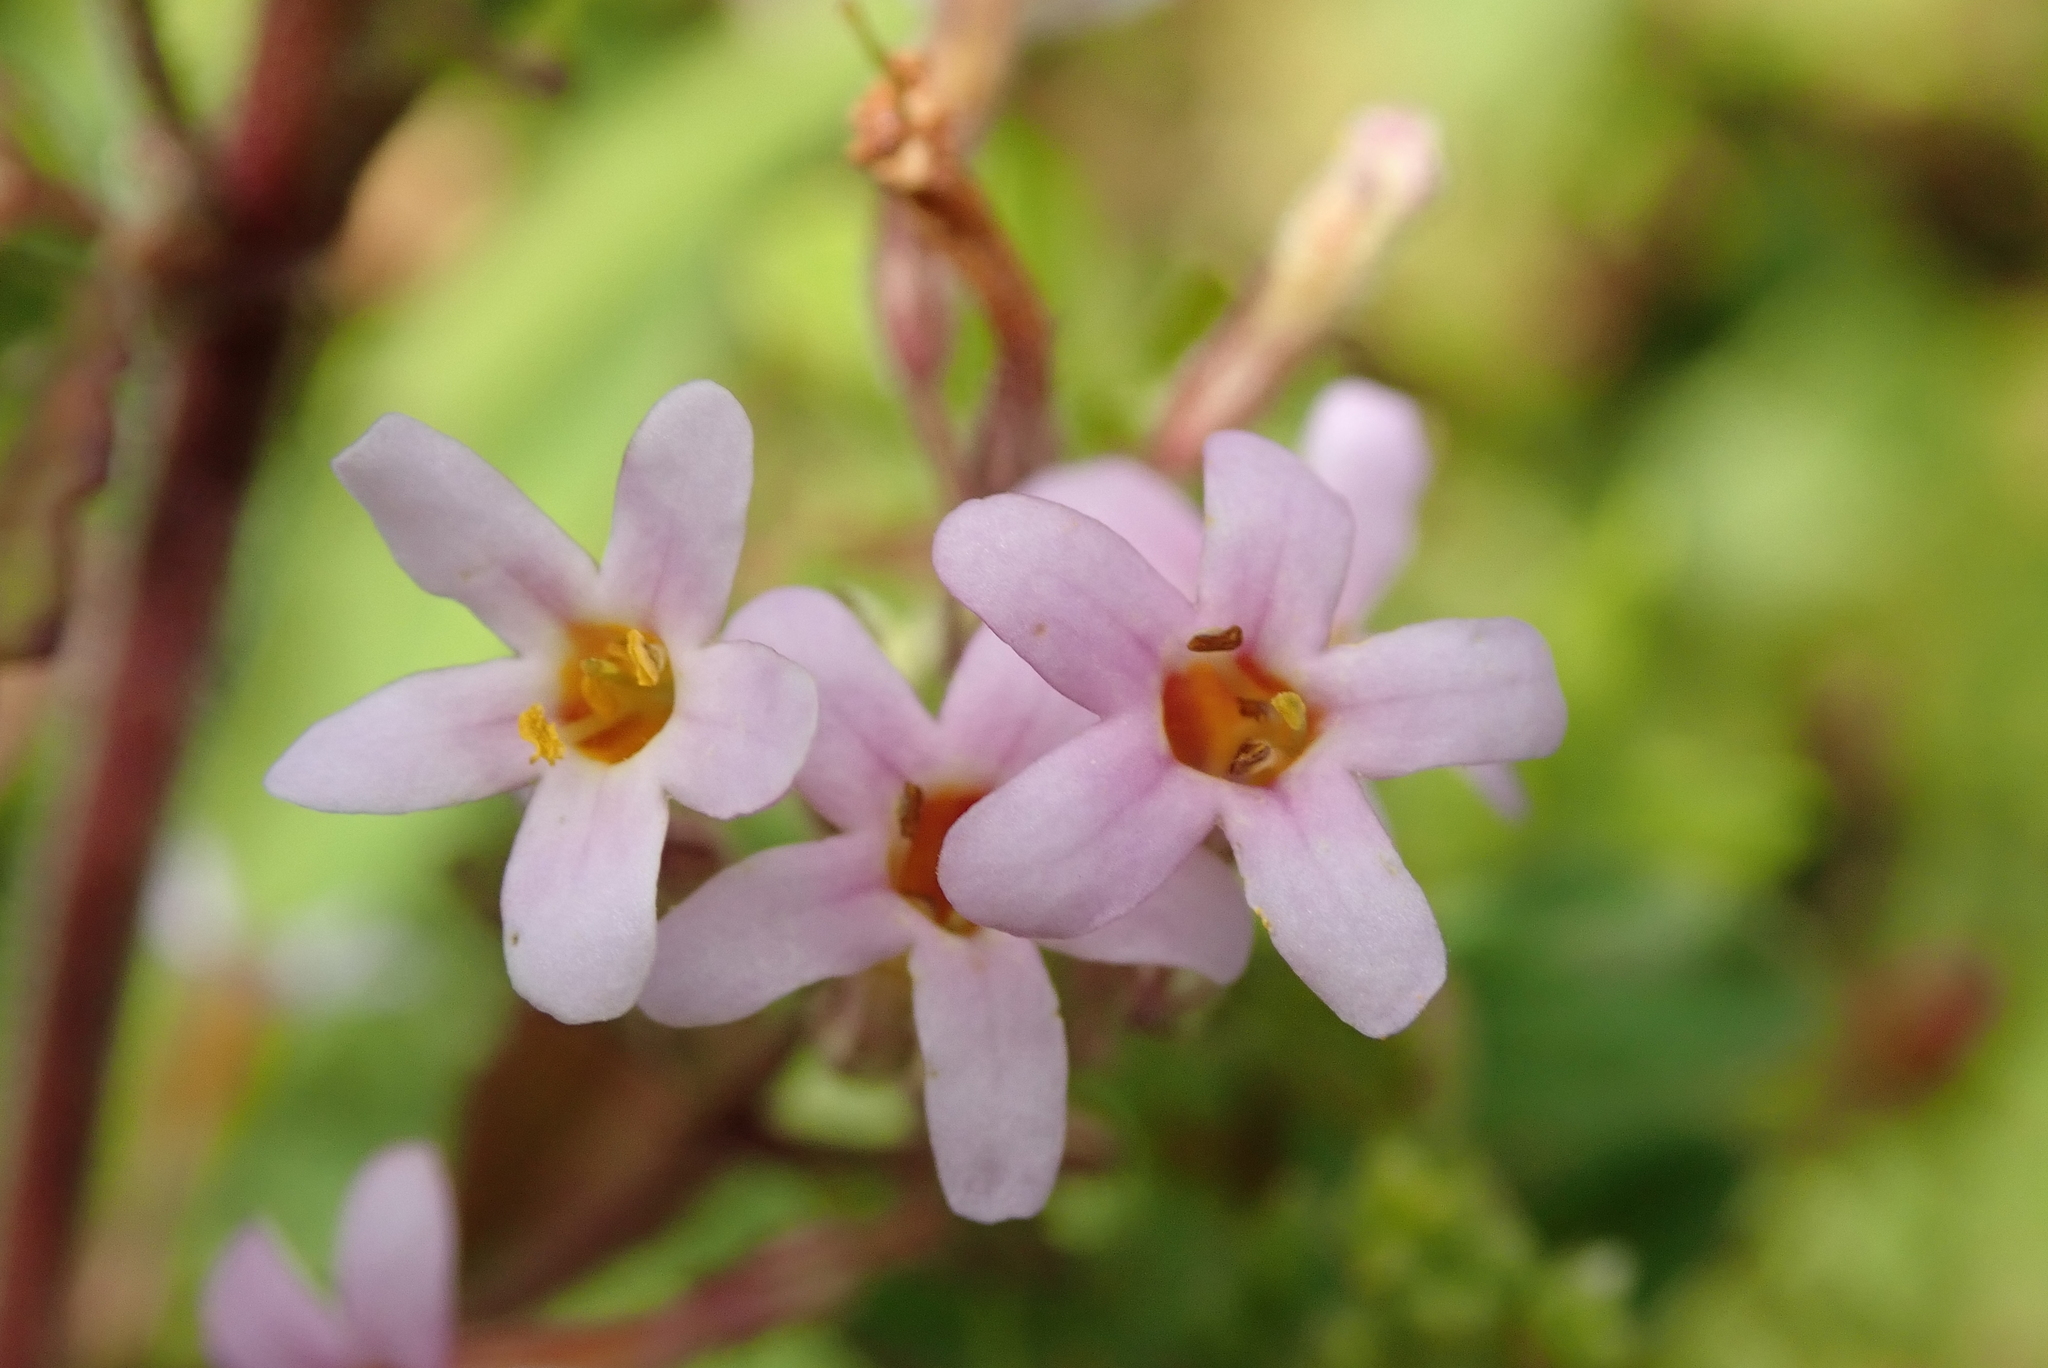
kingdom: Plantae
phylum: Tracheophyta
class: Magnoliopsida
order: Lamiales
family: Scrophulariaceae
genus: Chaenostoma
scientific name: Chaenostoma floribundum
